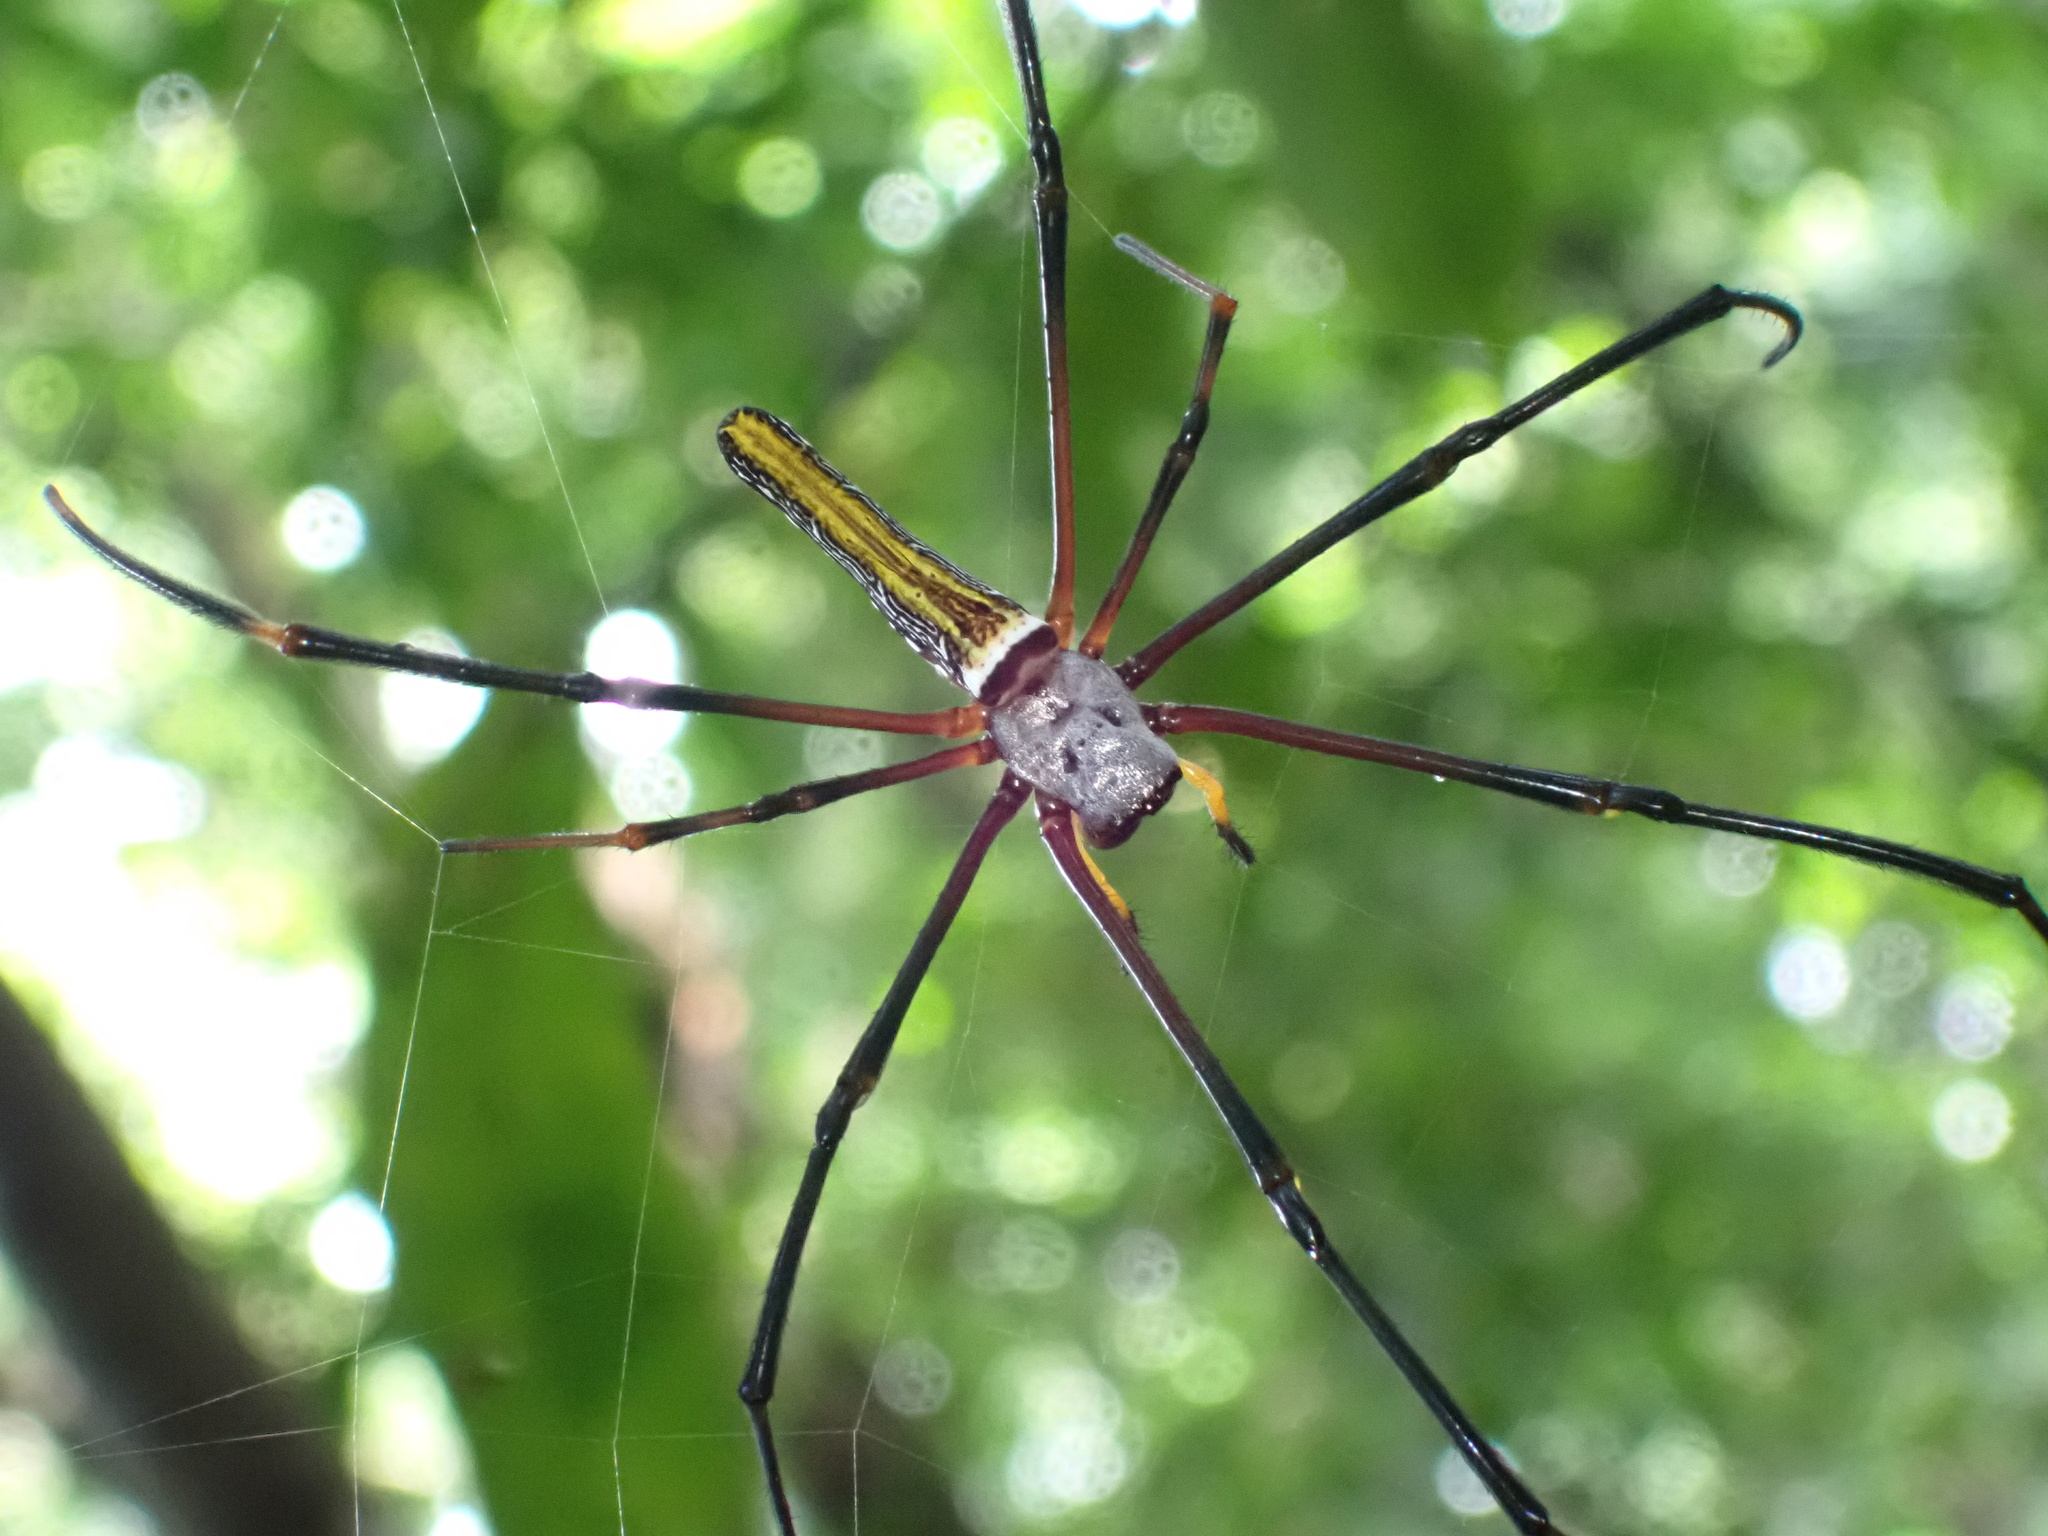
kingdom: Animalia
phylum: Arthropoda
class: Arachnida
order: Araneae
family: Araneidae
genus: Nephila
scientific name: Nephila pilipes
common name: Giant golden orb weaver
